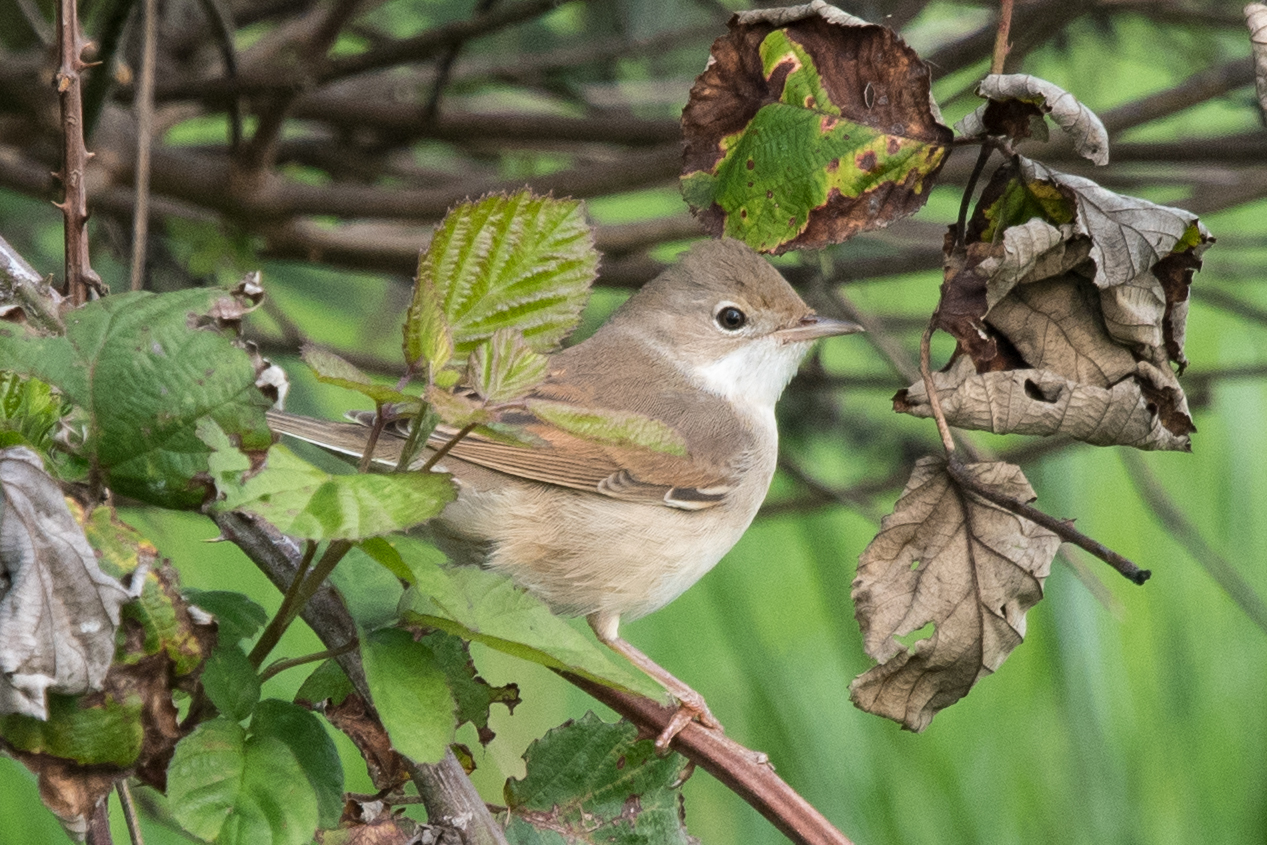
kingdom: Animalia
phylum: Chordata
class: Aves
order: Passeriformes
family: Sylviidae
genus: Sylvia
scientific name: Sylvia communis
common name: Common whitethroat
